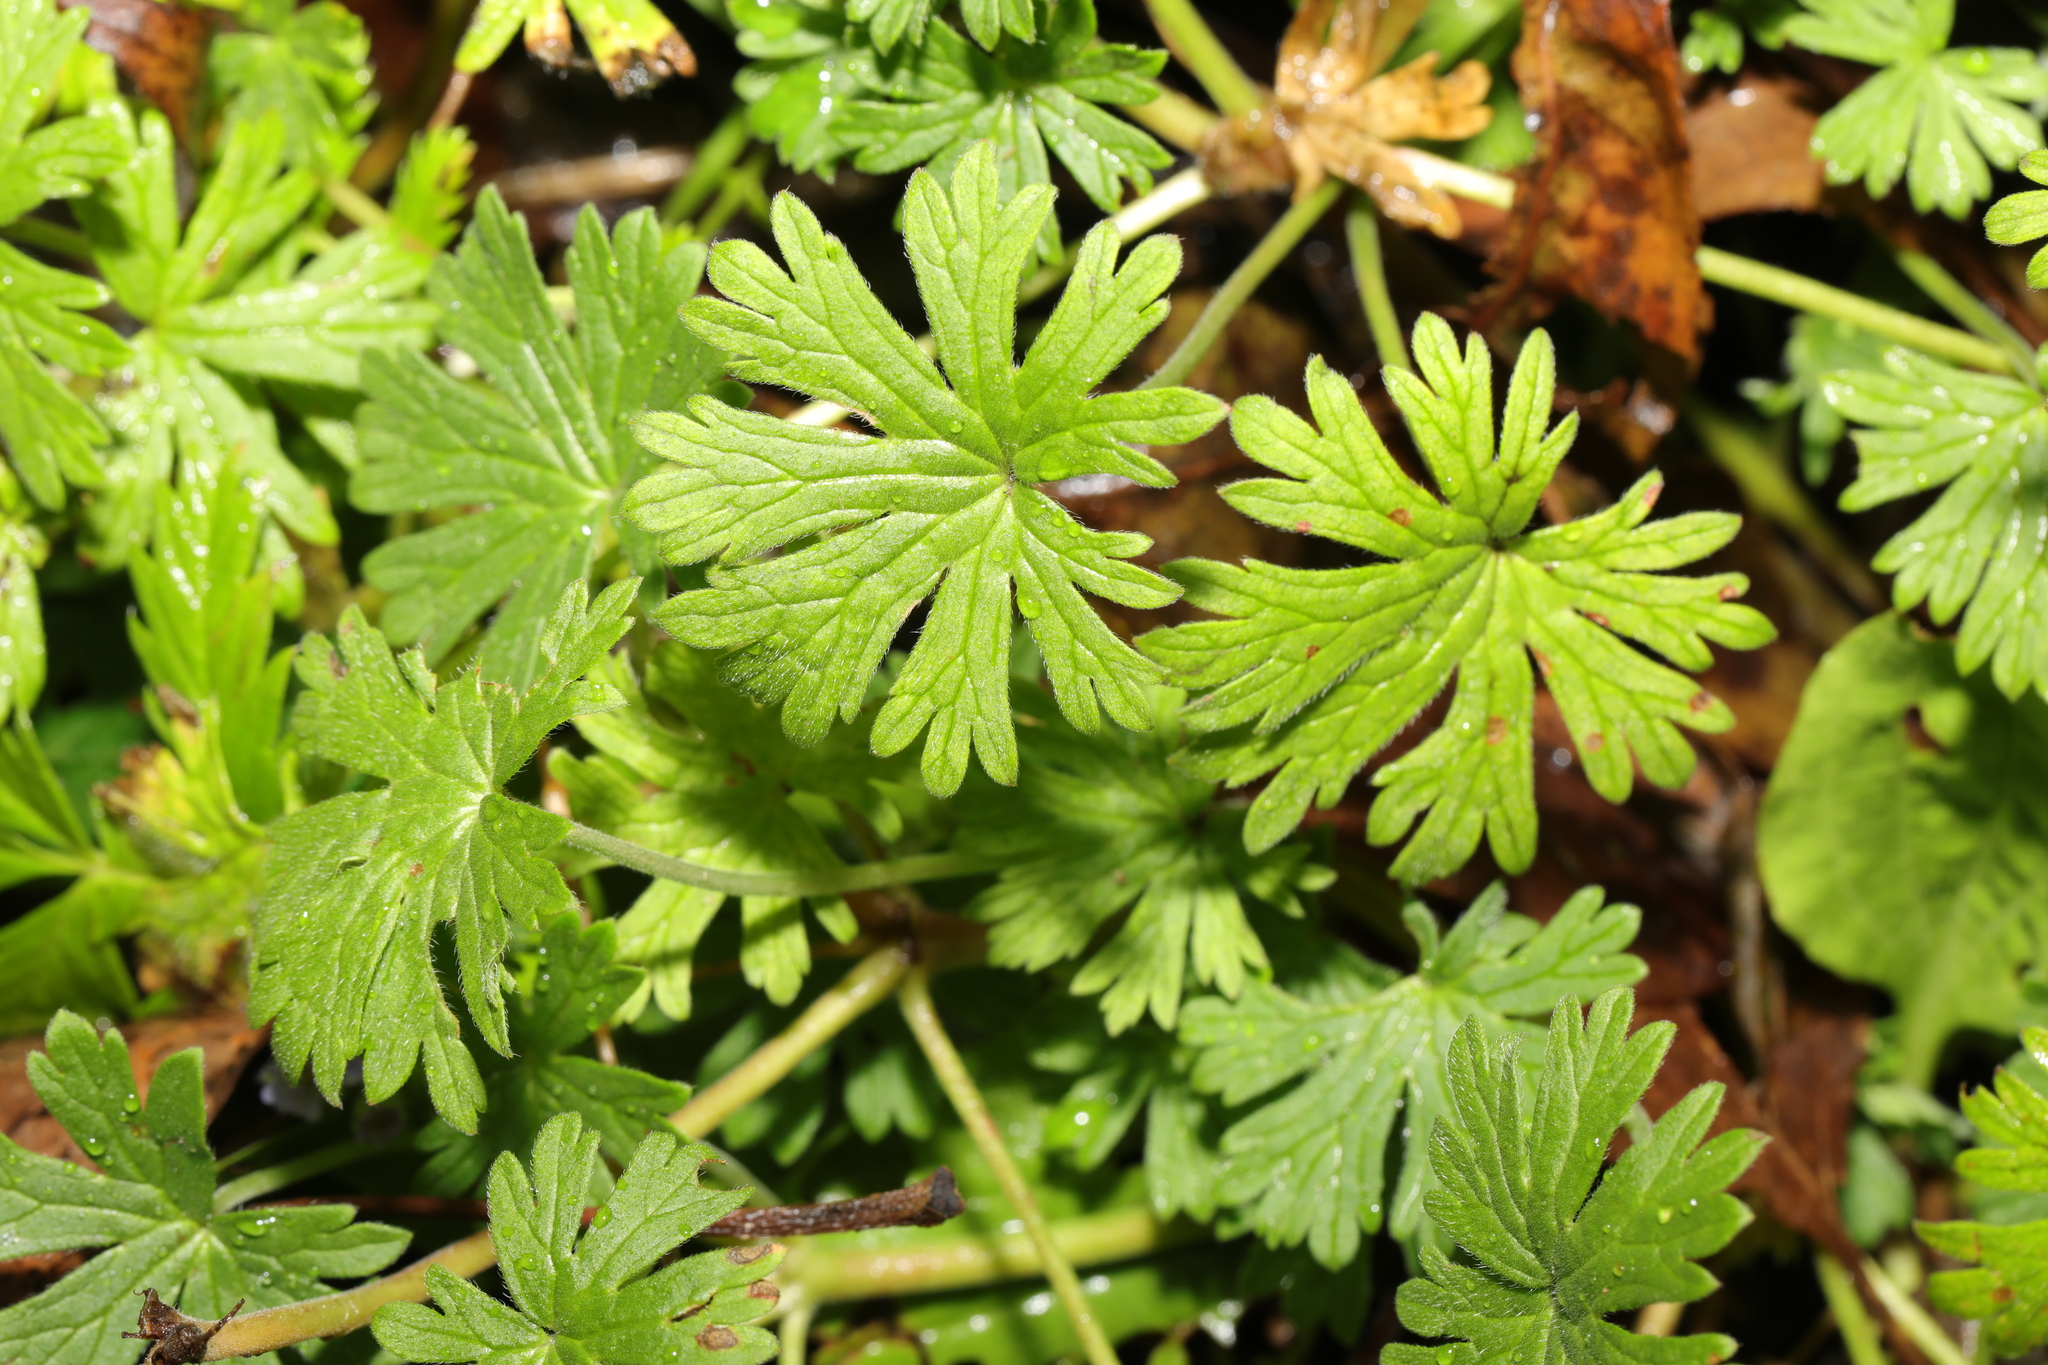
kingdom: Plantae
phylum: Tracheophyta
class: Magnoliopsida
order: Geraniales
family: Geraniaceae
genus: Geranium
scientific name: Geranium dissectum
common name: Cut-leaved crane's-bill
